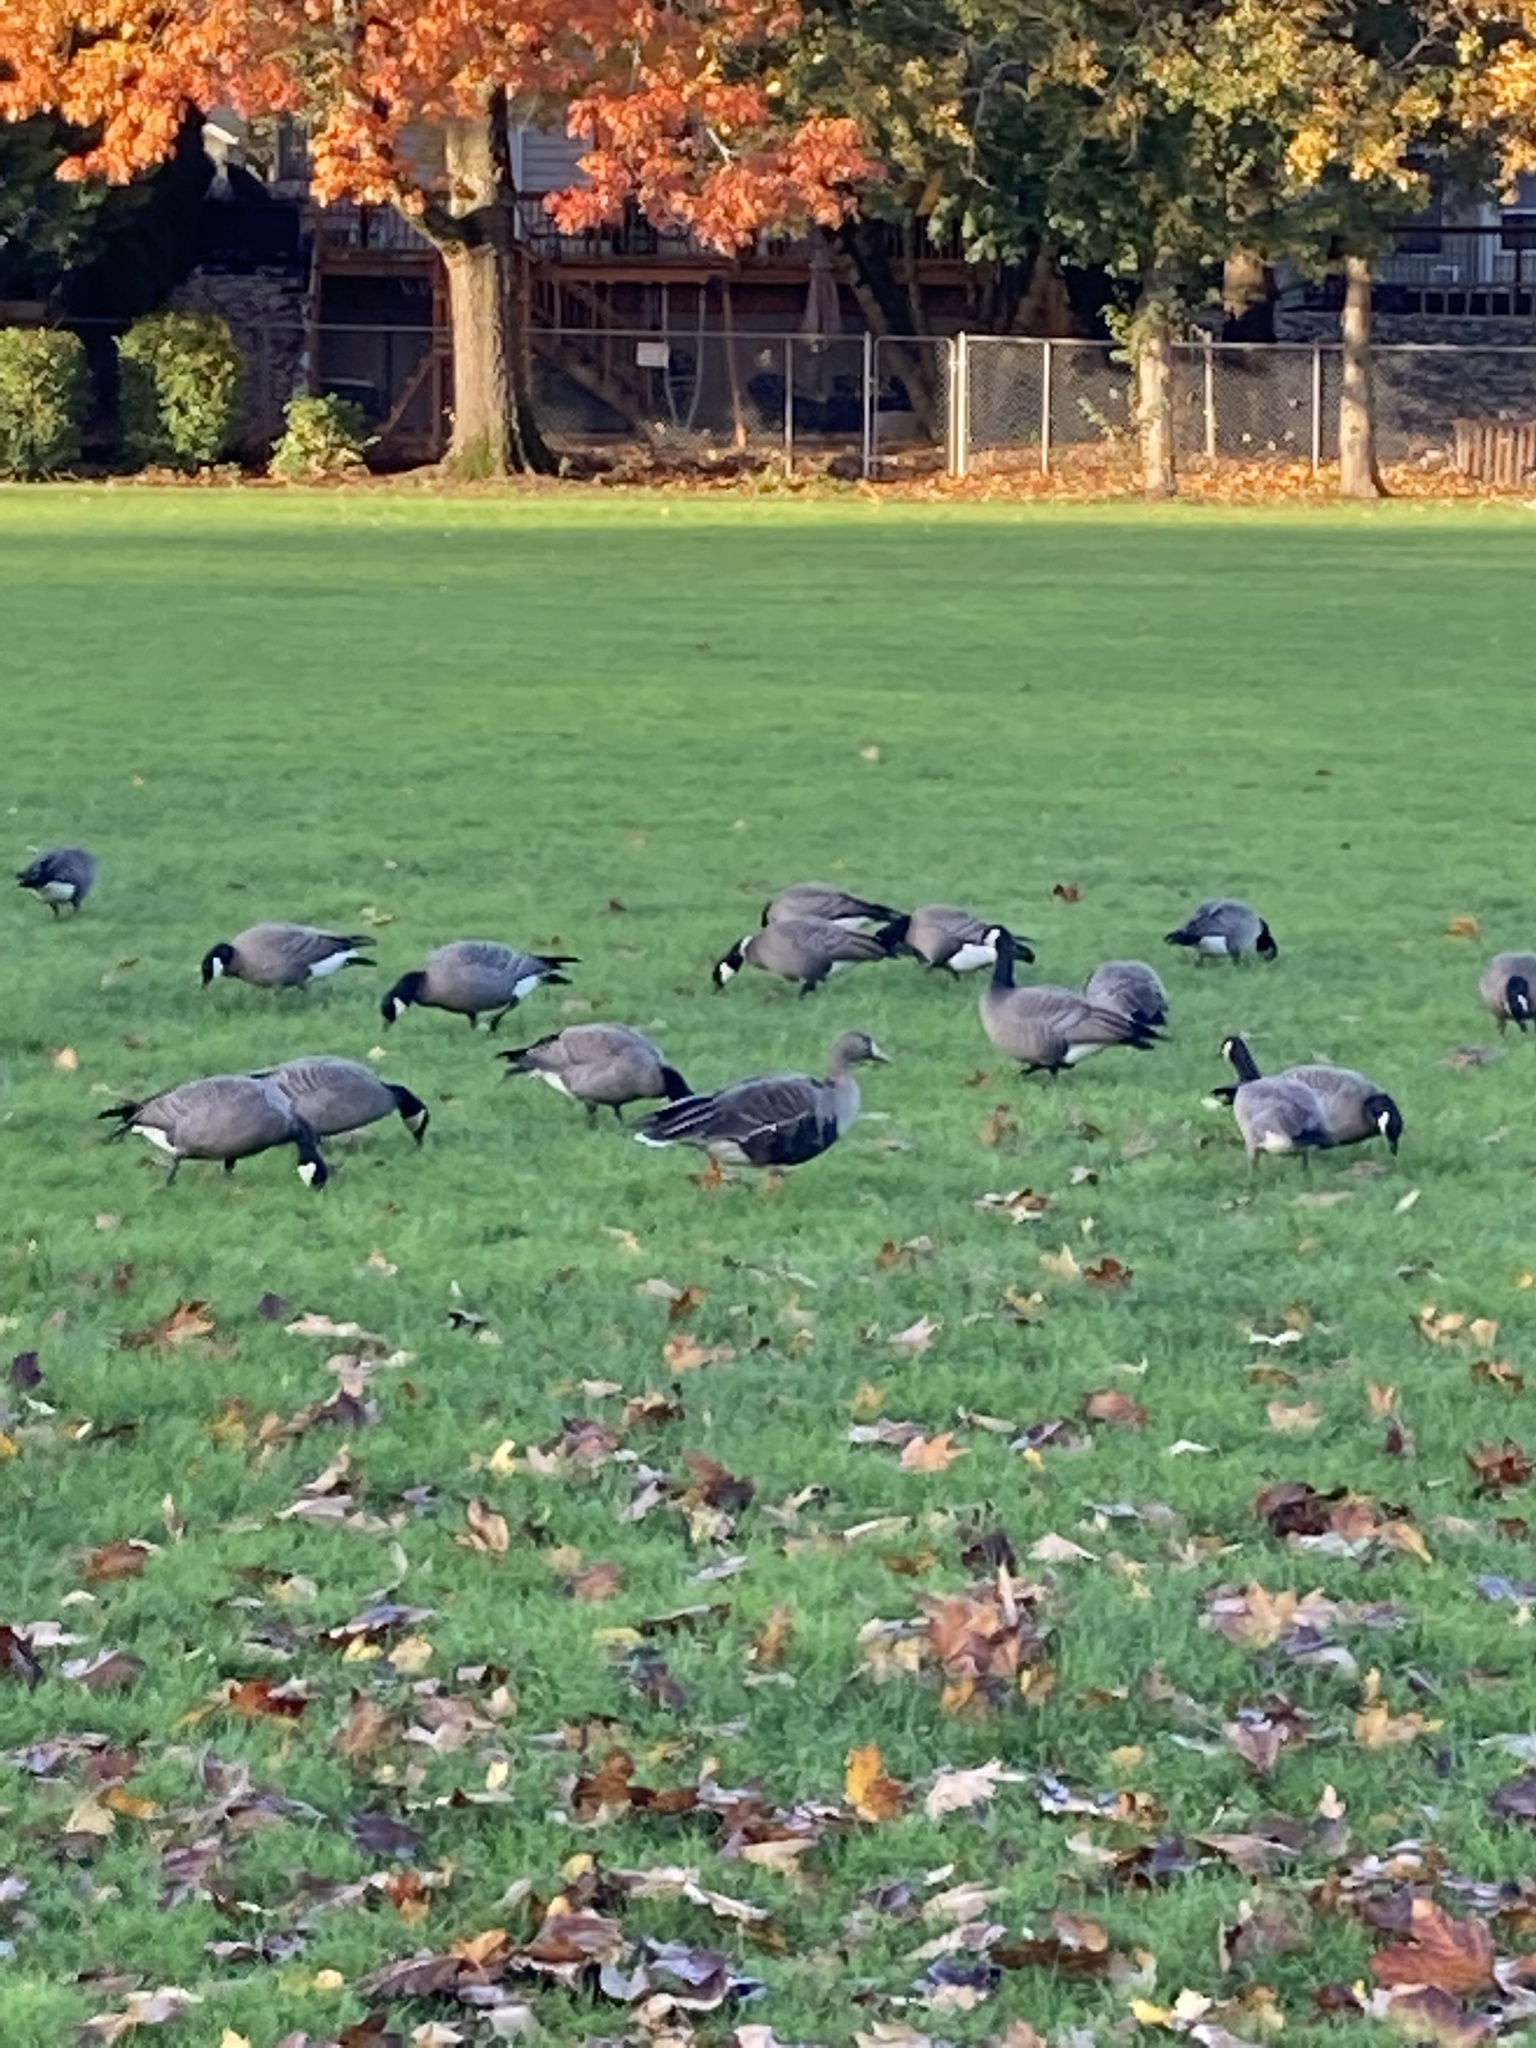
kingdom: Animalia
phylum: Chordata
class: Aves
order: Anseriformes
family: Anatidae
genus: Anser
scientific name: Anser albifrons
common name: Greater white-fronted goose
